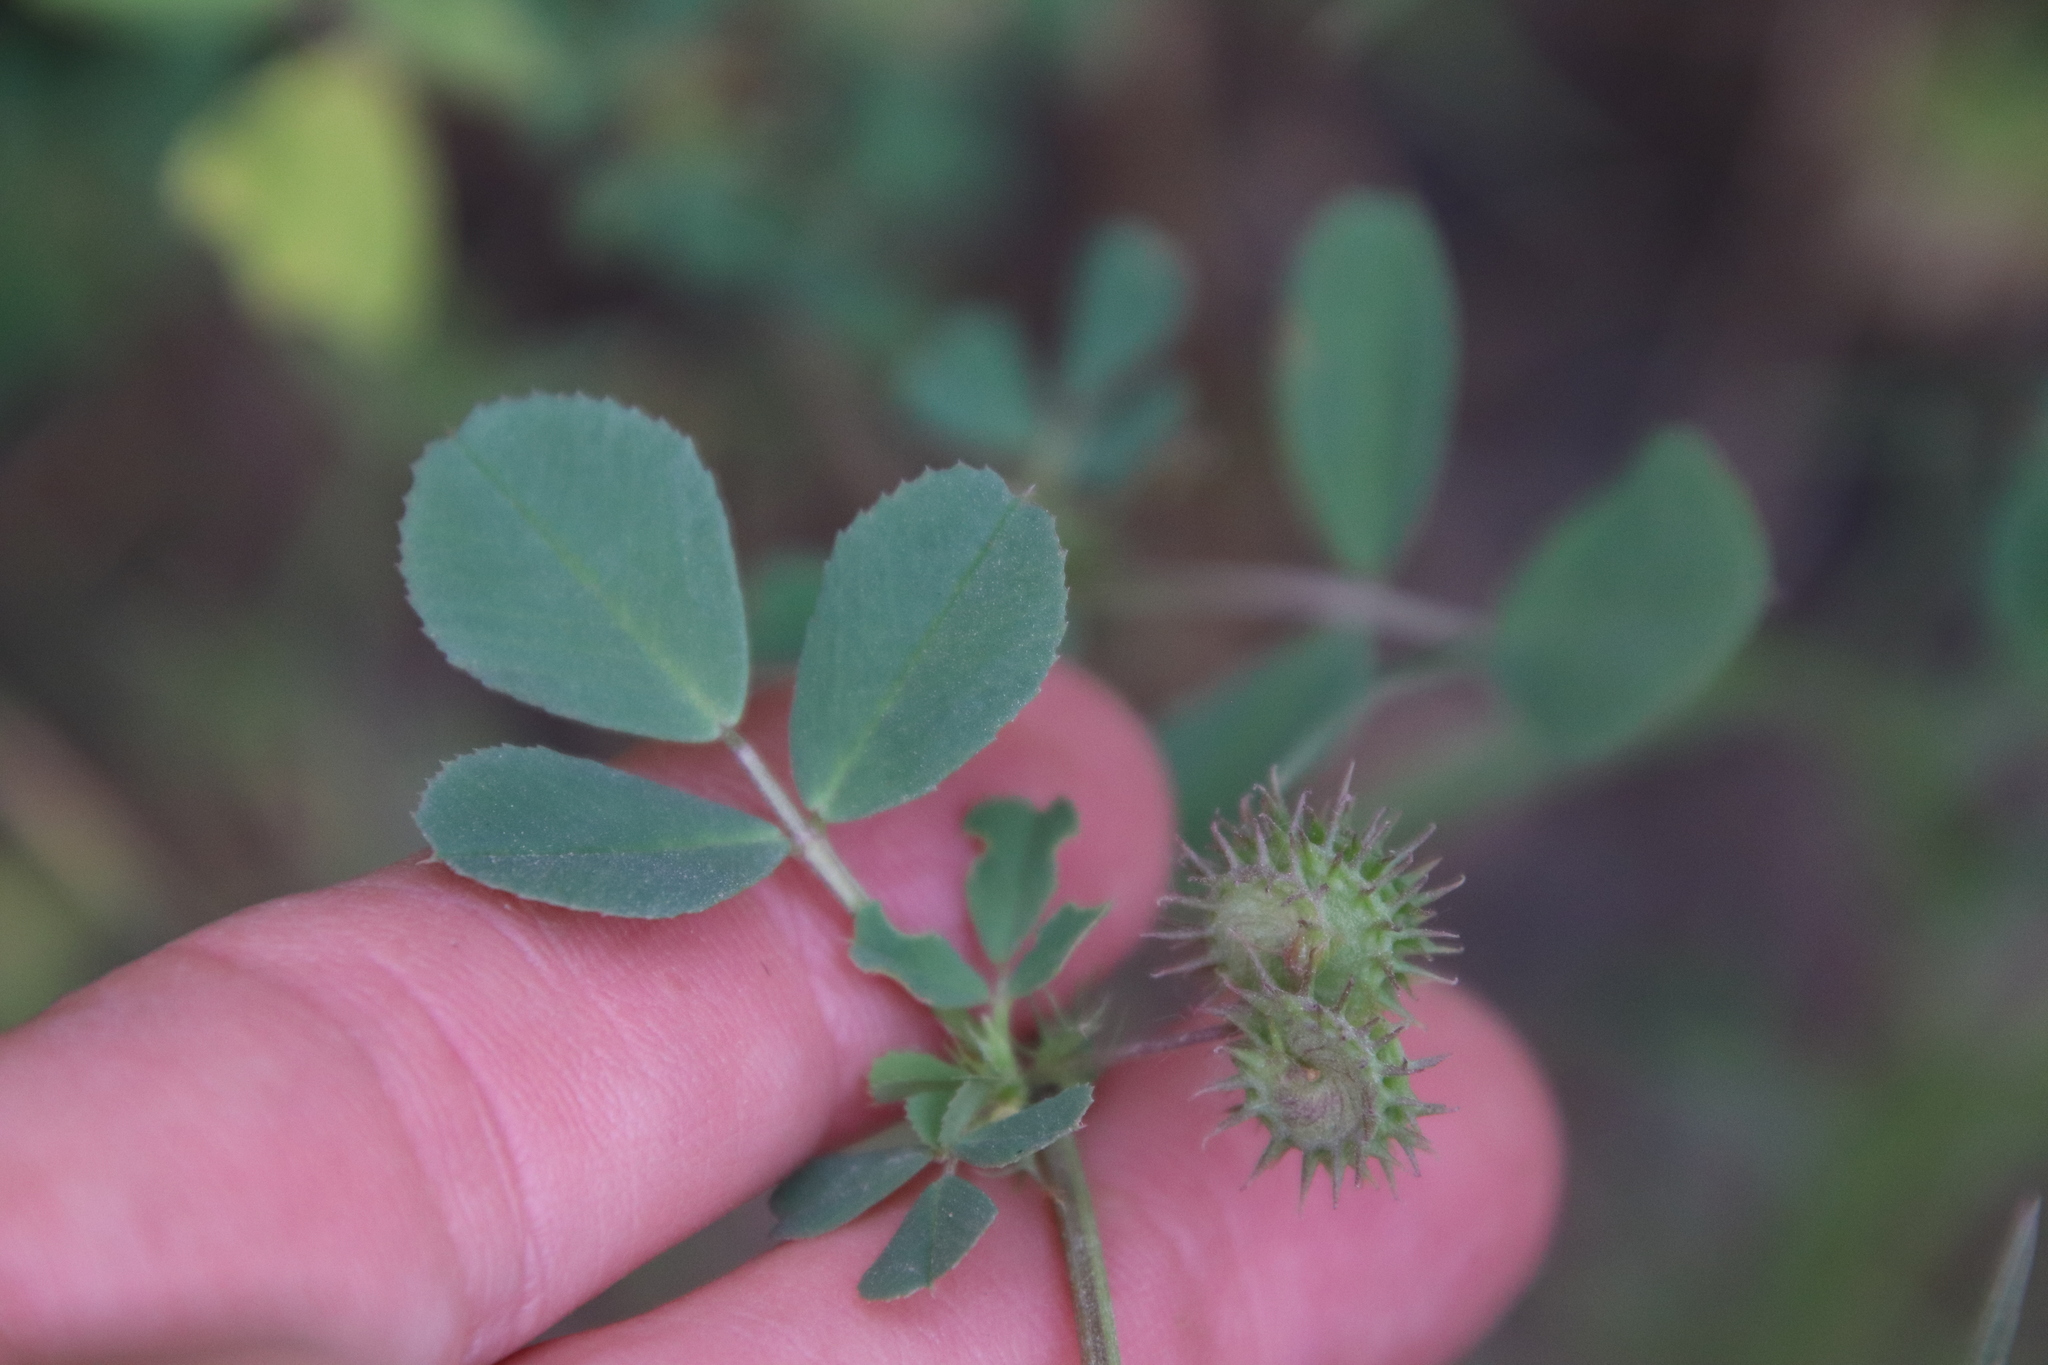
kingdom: Plantae
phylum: Tracheophyta
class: Magnoliopsida
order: Fabales
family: Fabaceae
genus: Medicago
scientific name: Medicago polymorpha
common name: Burclover
